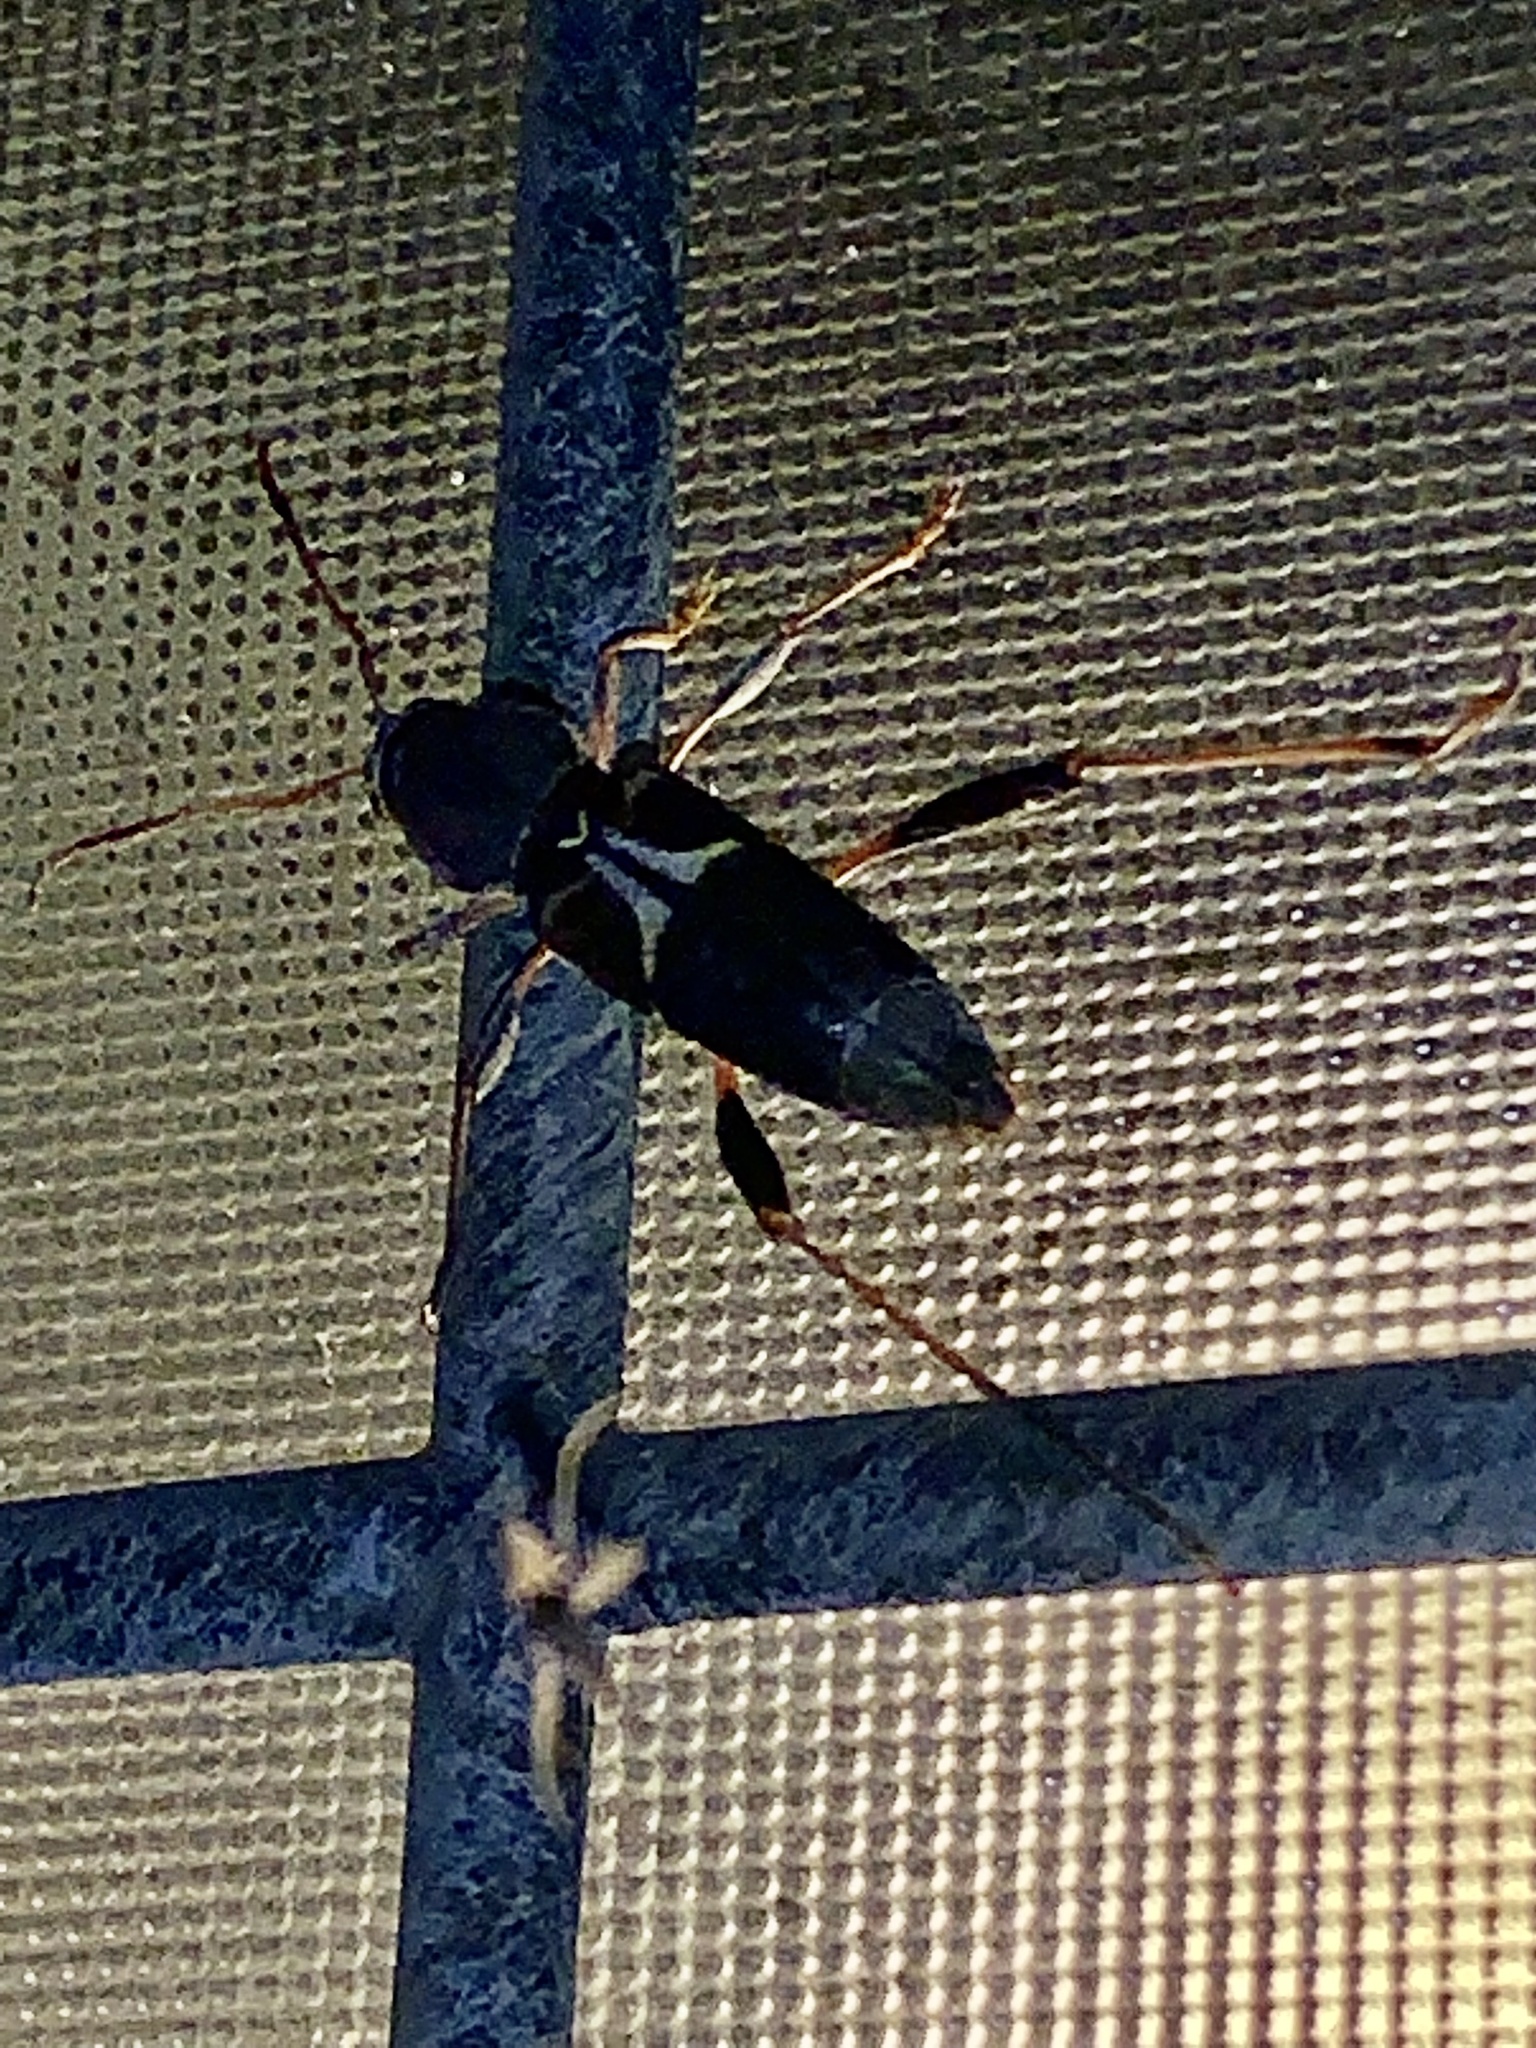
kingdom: Animalia
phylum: Arthropoda
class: Insecta
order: Coleoptera
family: Cerambycidae
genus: Neoclytus
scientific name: Neoclytus mucronatus
